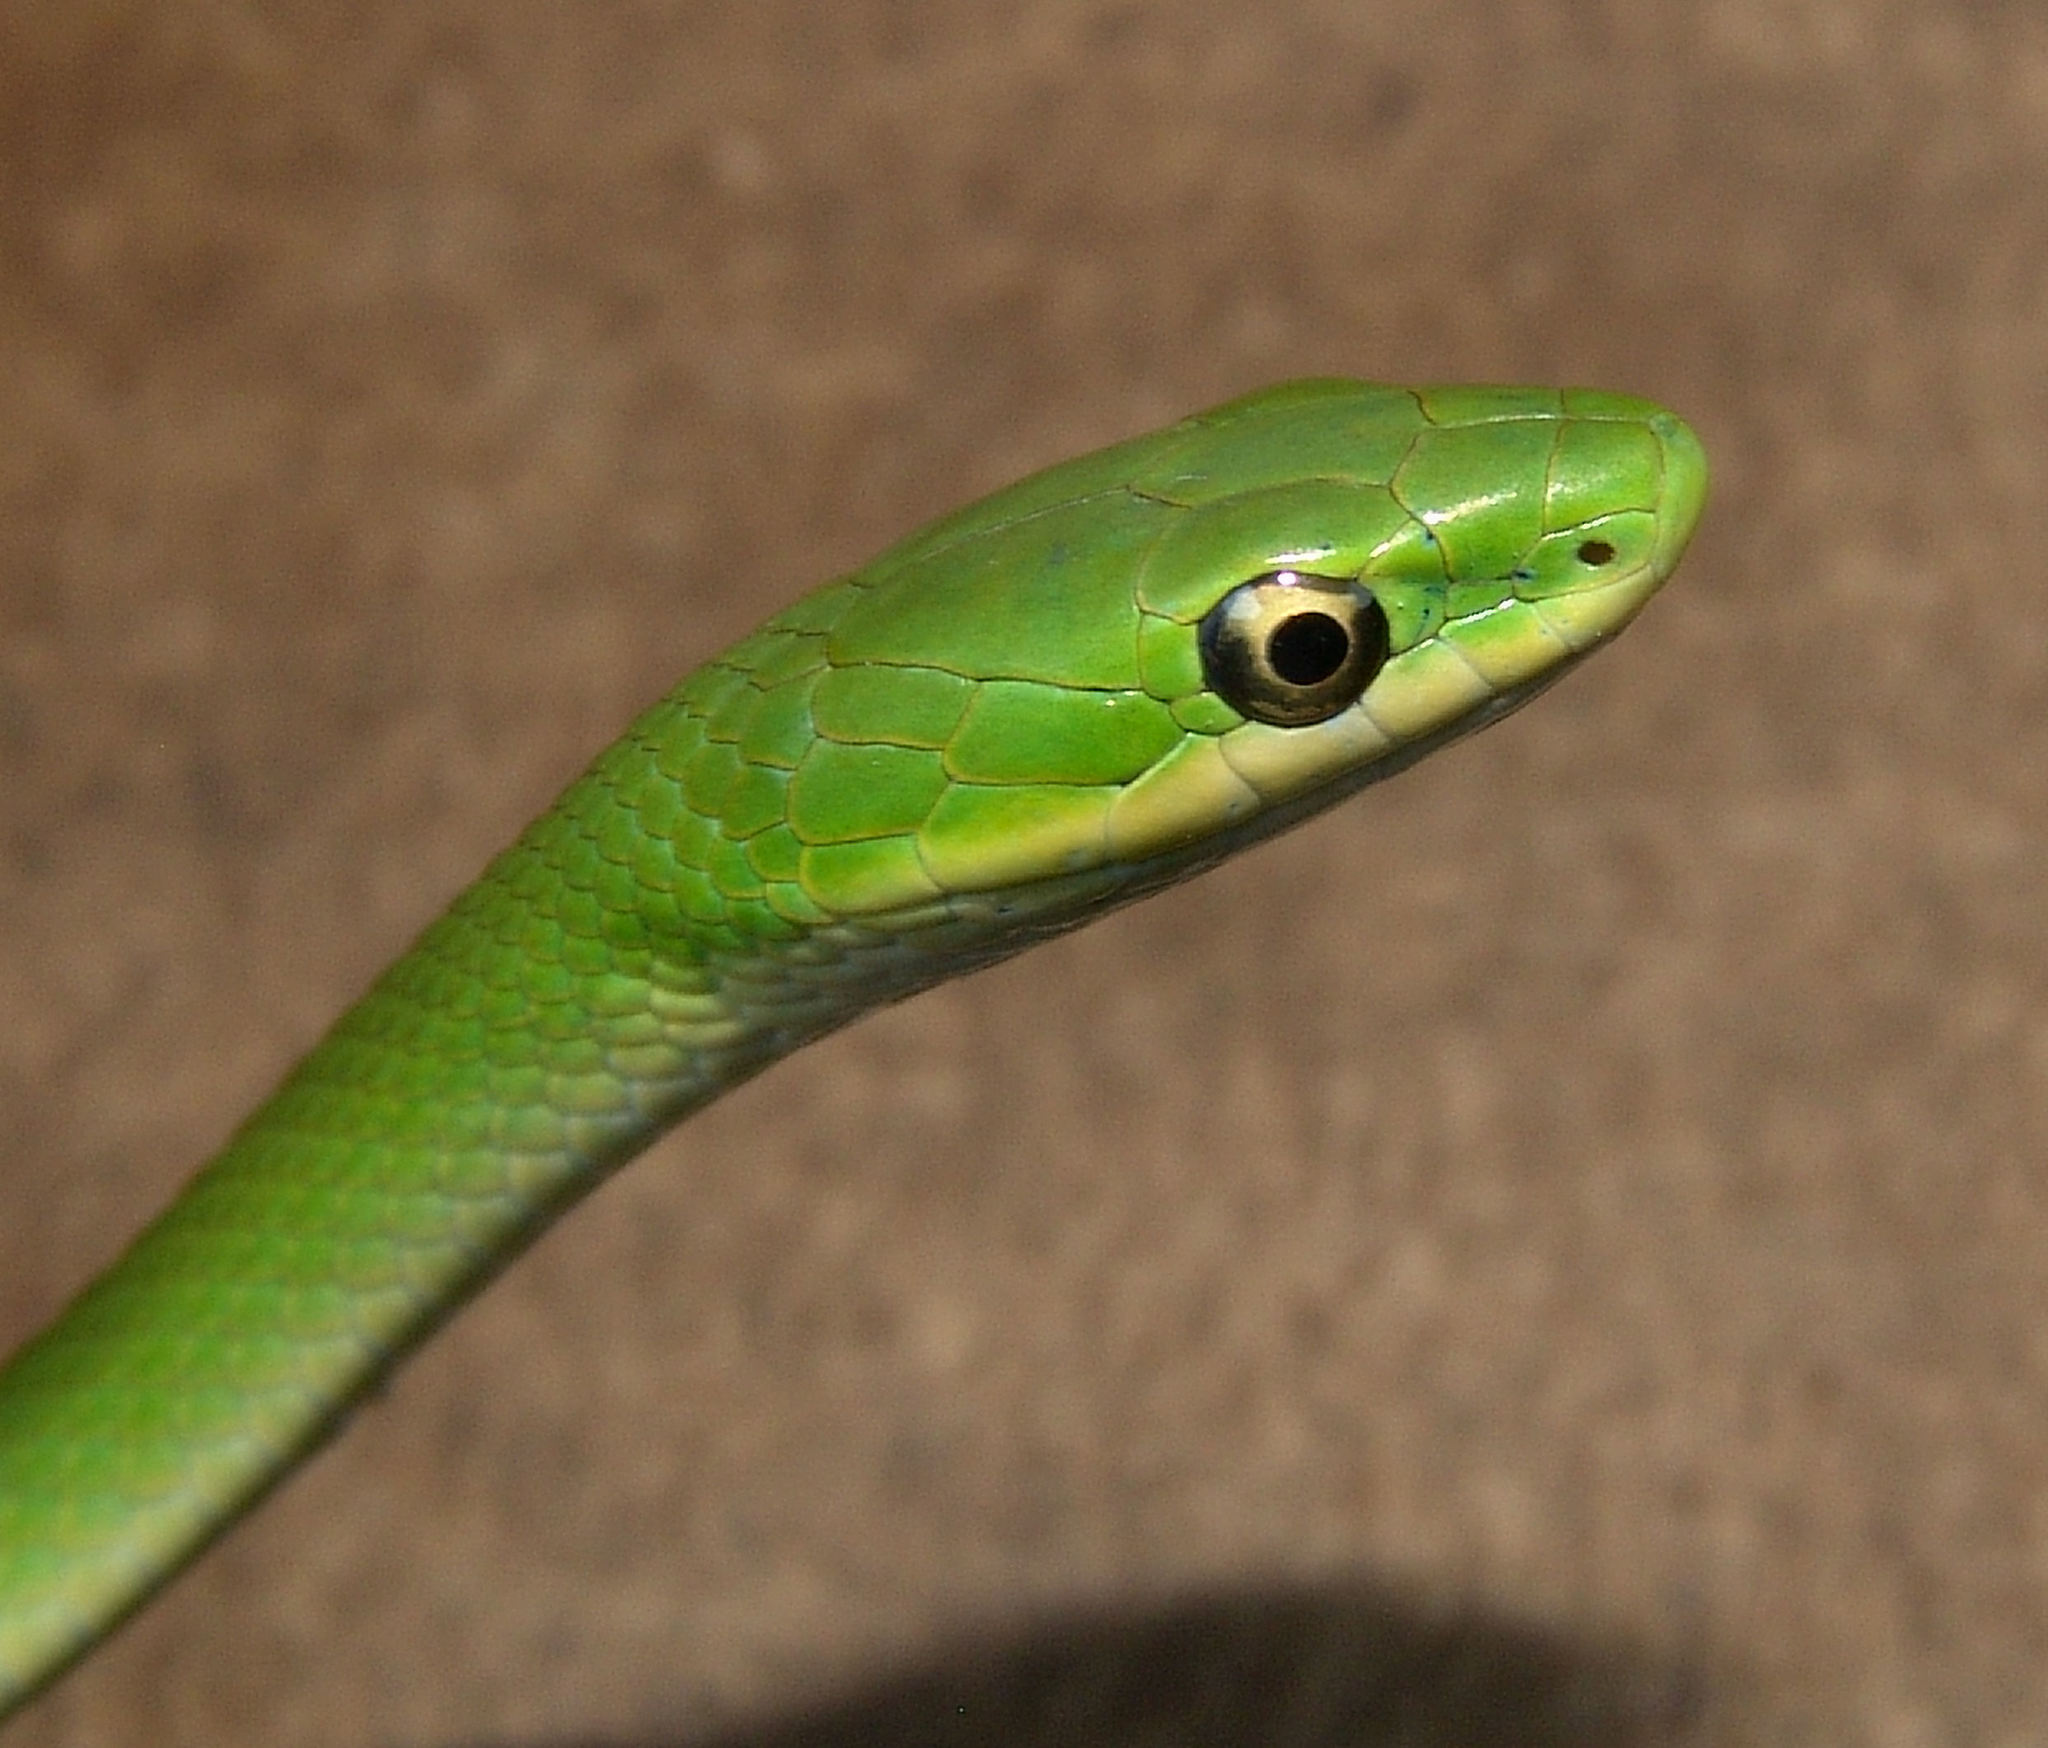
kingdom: Animalia
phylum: Chordata
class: Squamata
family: Colubridae
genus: Opheodrys
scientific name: Opheodrys aestivus
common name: Rough greensnake
